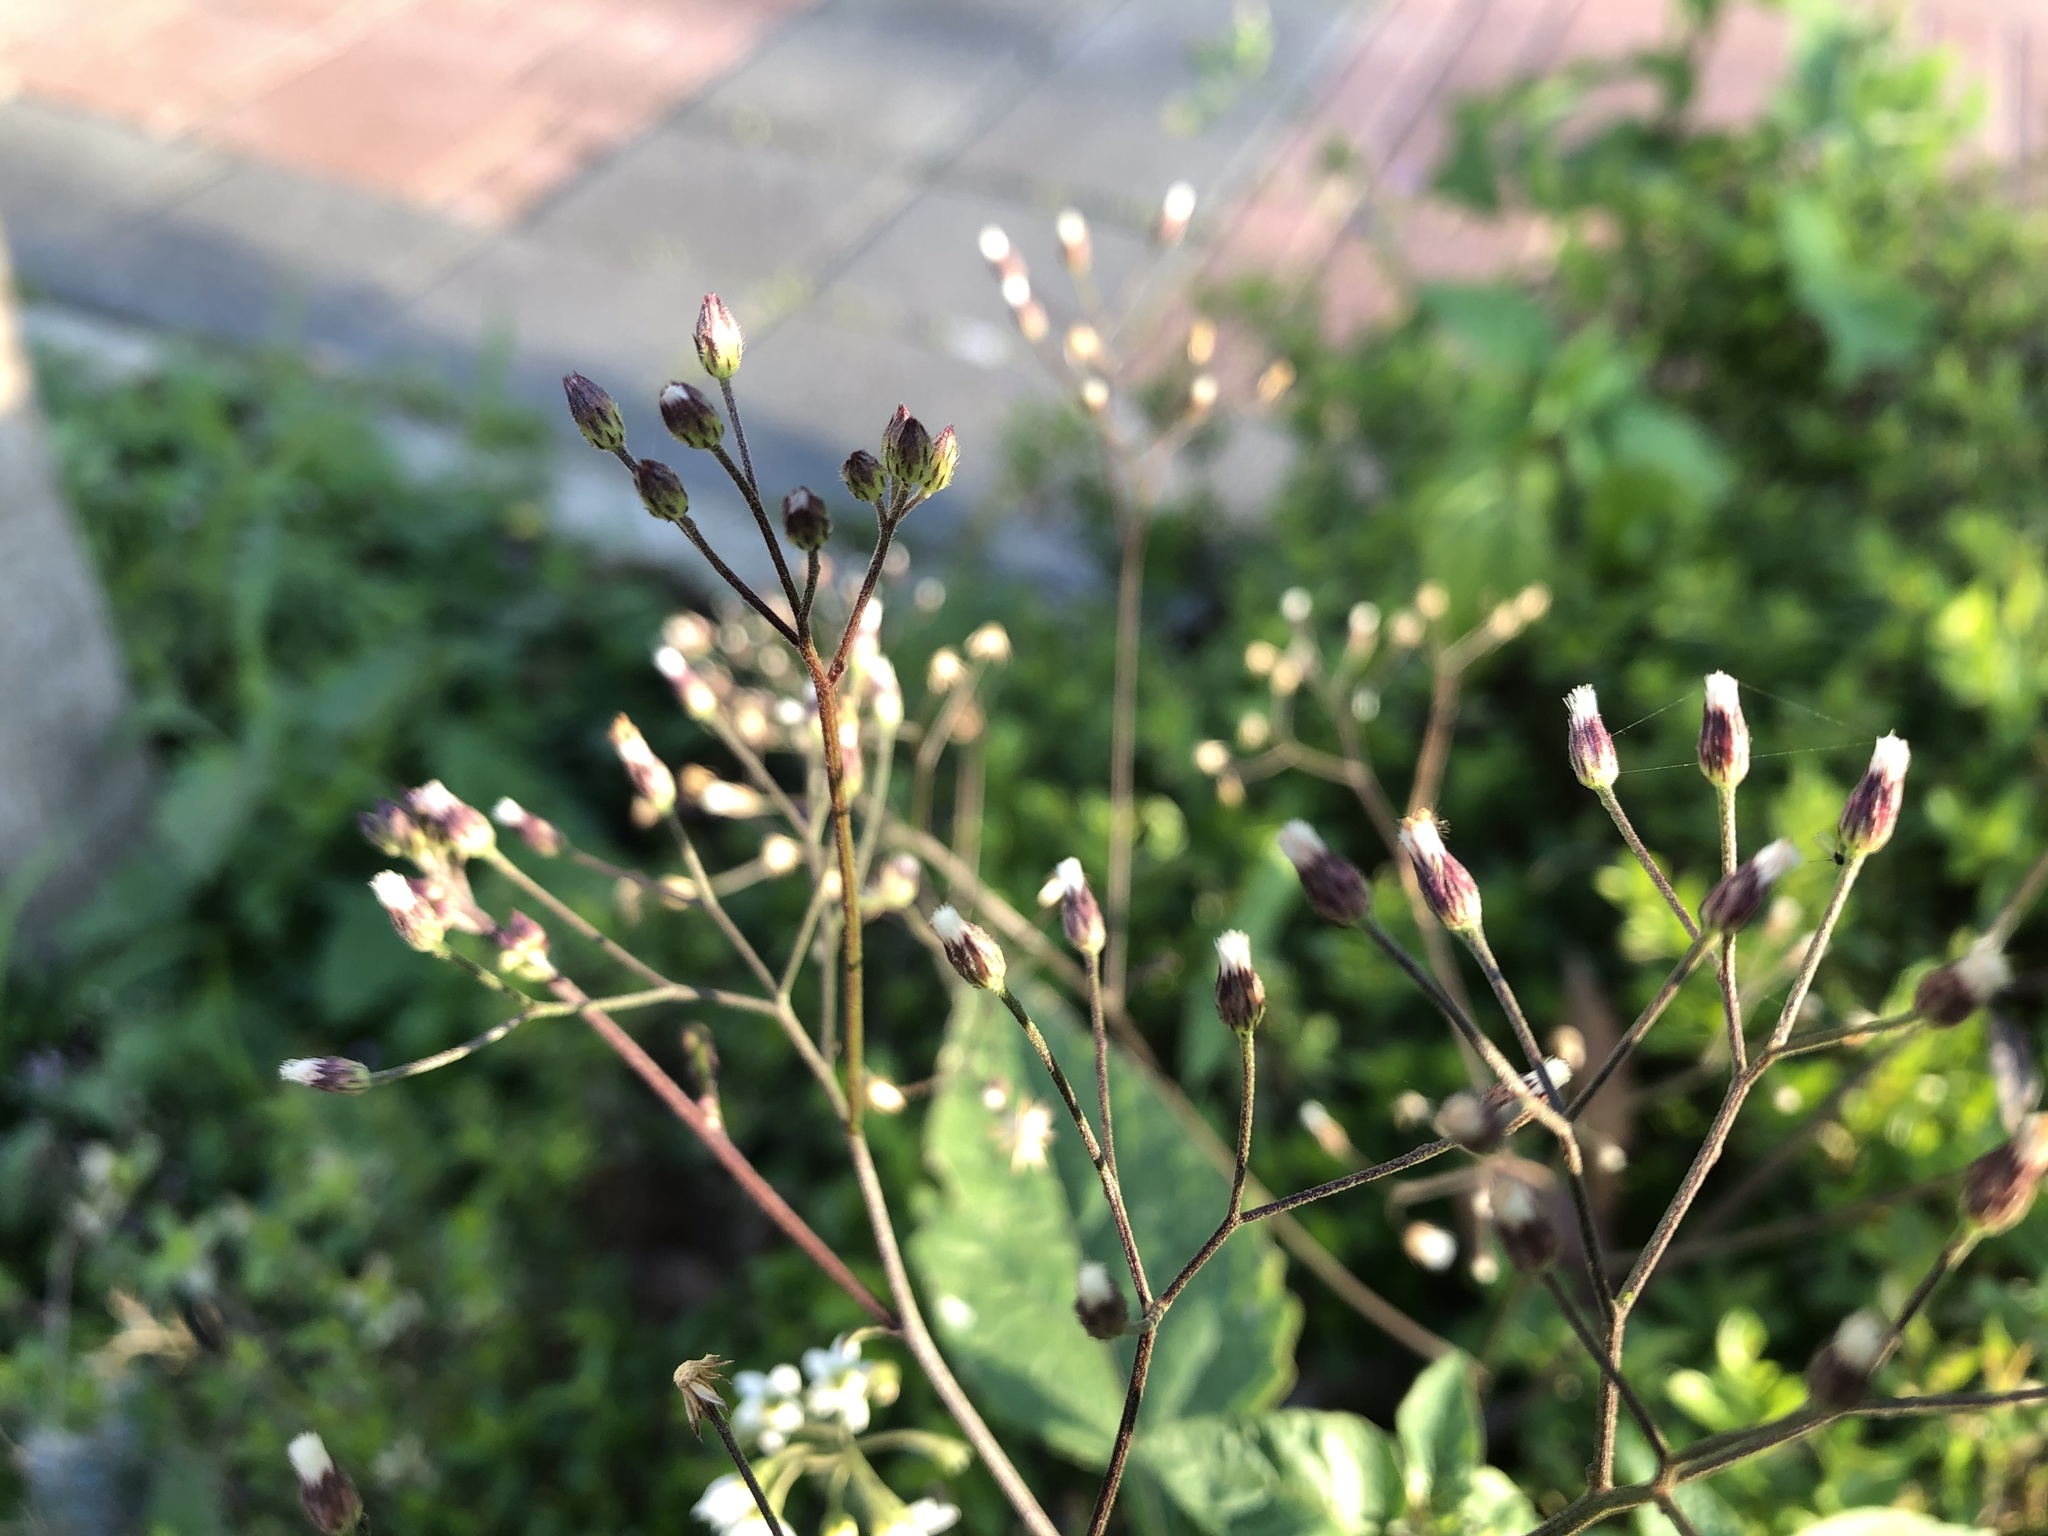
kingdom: Plantae
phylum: Tracheophyta
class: Magnoliopsida
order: Asterales
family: Asteraceae
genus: Cyanthillium
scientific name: Cyanthillium cinereum
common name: Little ironweed
